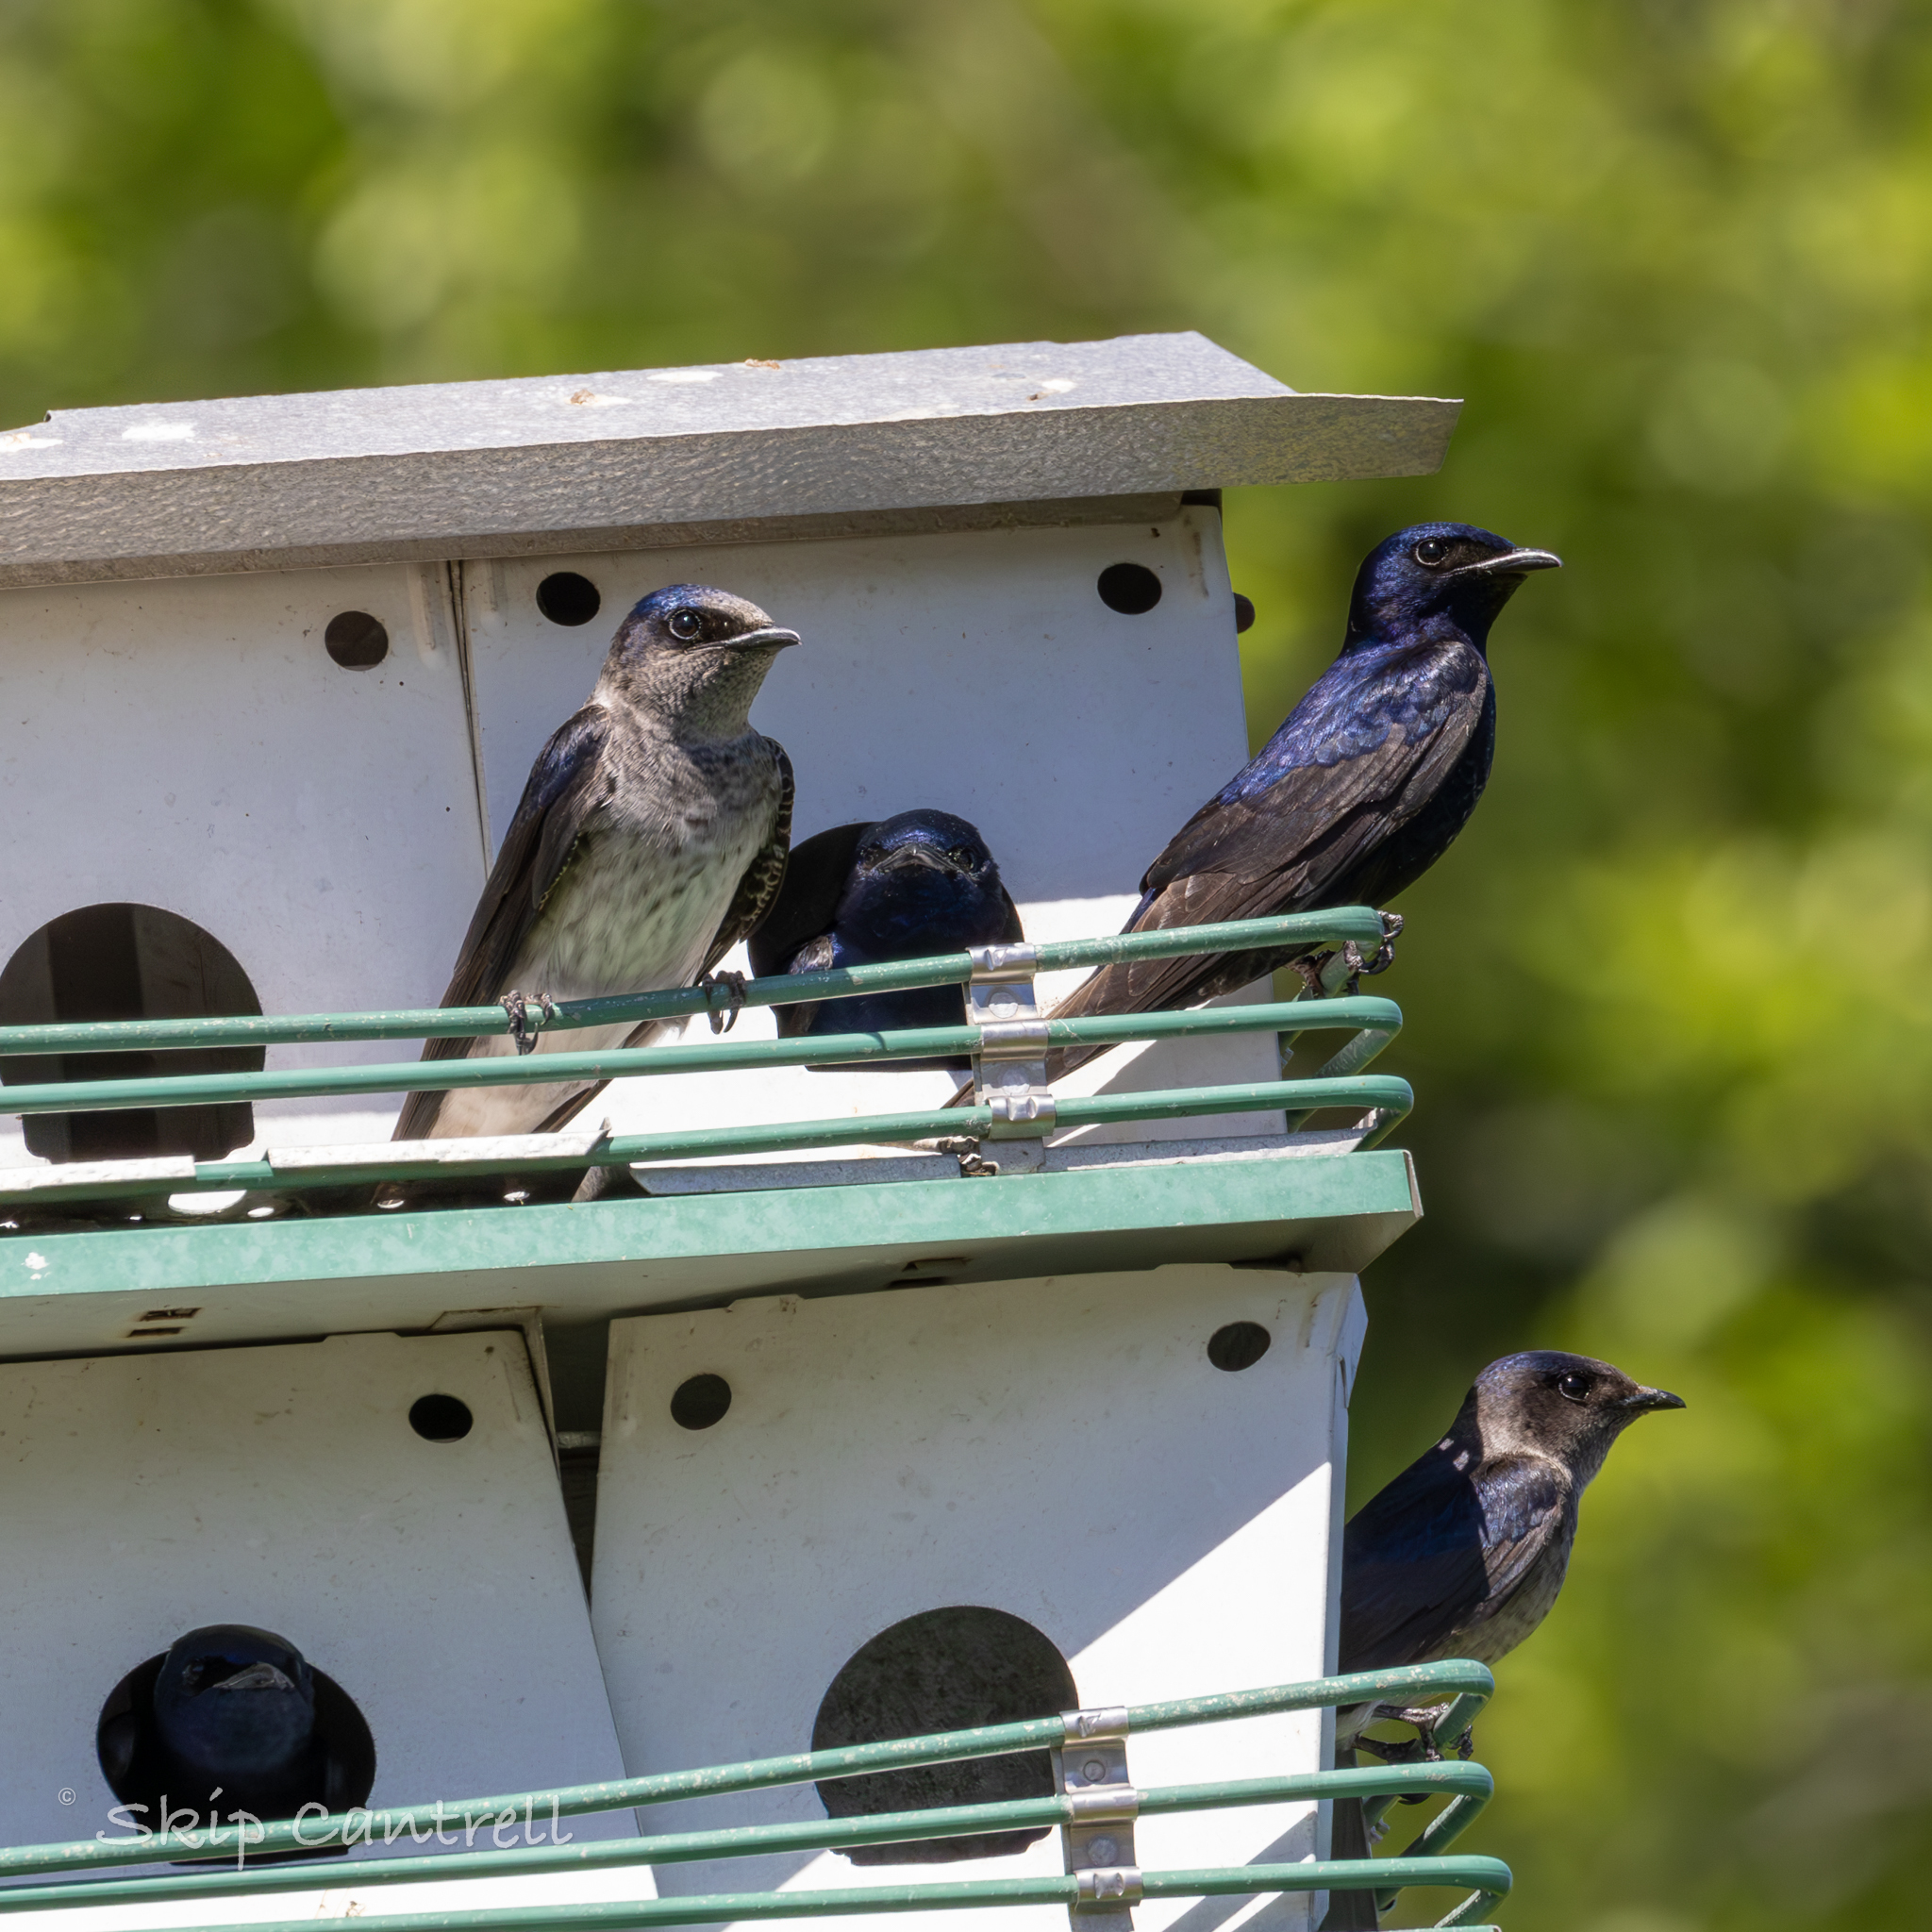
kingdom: Animalia
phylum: Chordata
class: Aves
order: Passeriformes
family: Hirundinidae
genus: Progne
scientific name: Progne subis
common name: Purple martin
